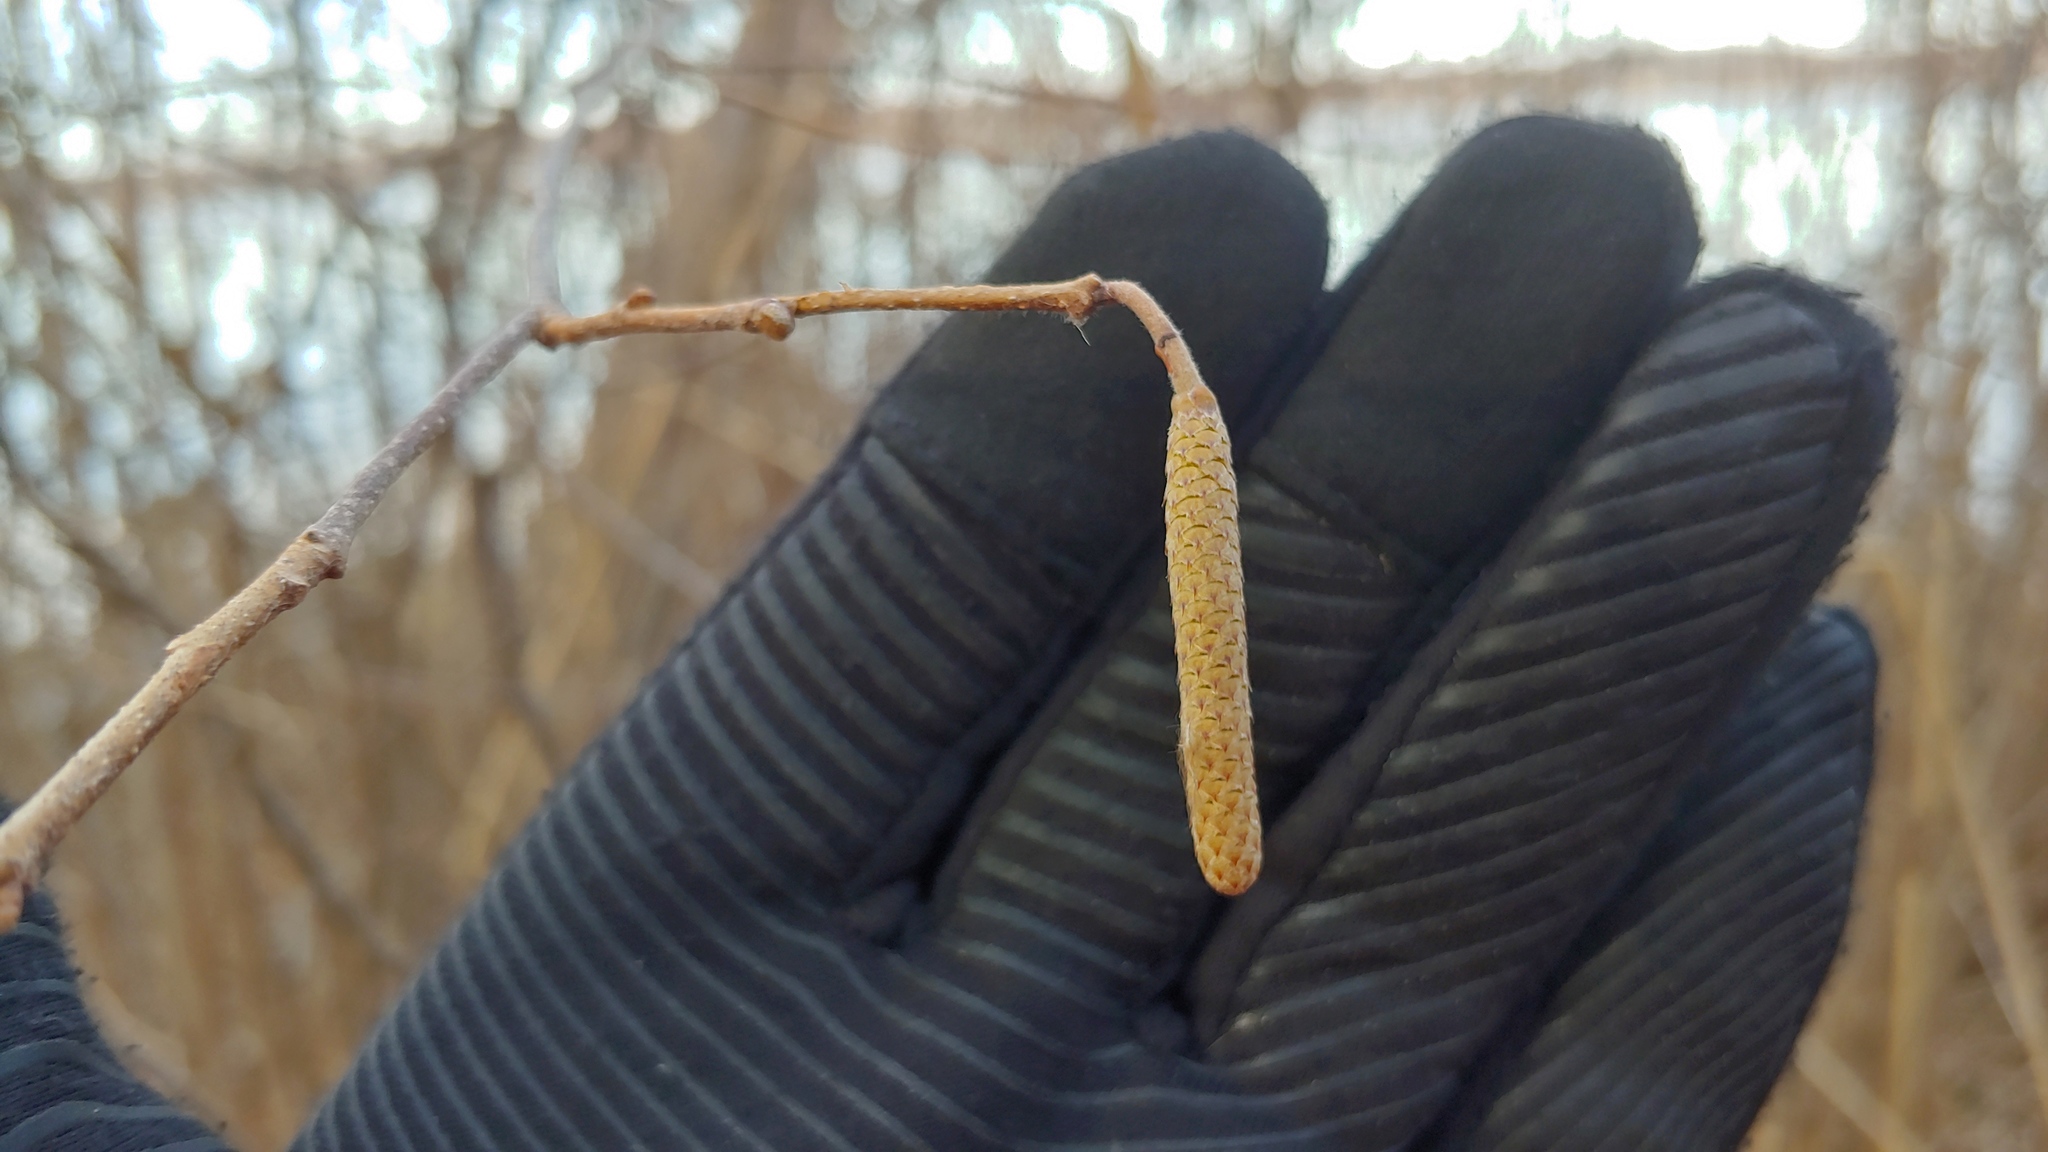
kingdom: Plantae
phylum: Tracheophyta
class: Magnoliopsida
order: Fagales
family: Betulaceae
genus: Corylus
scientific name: Corylus americana
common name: American hazel
